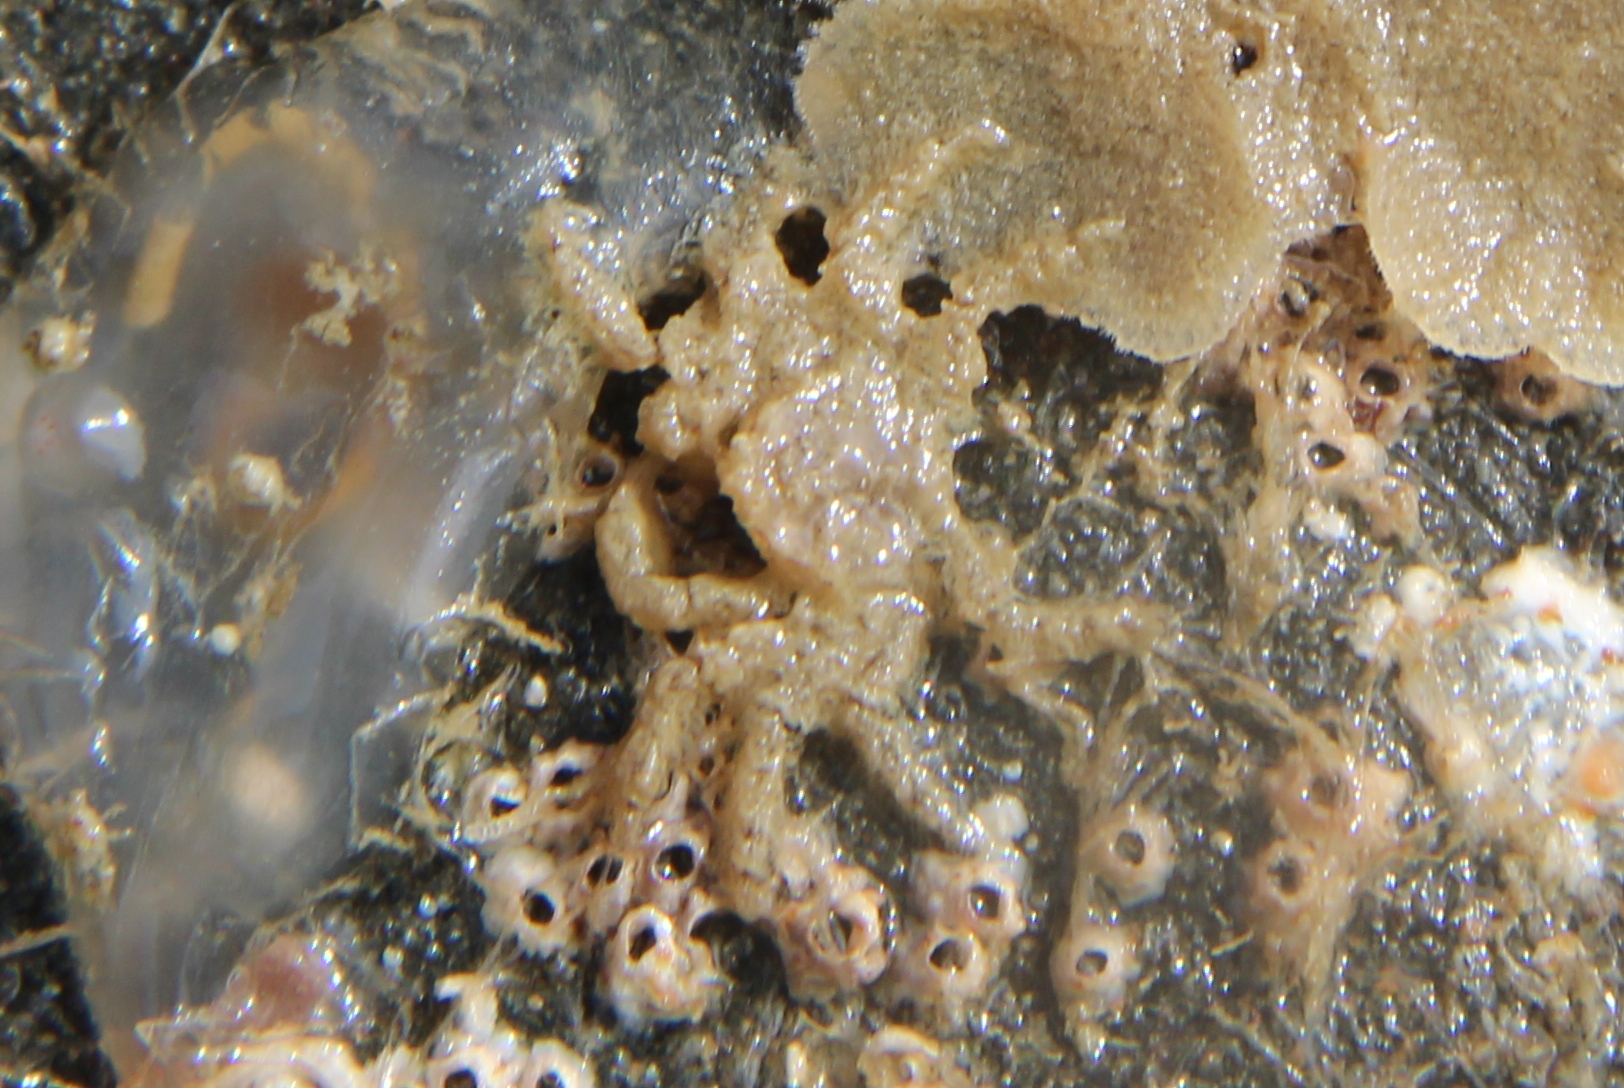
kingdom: Animalia
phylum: Arthropoda
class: Malacostraca
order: Decapoda
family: Hymenosomatidae
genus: Neohymenicus
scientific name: Neohymenicus pubescens
